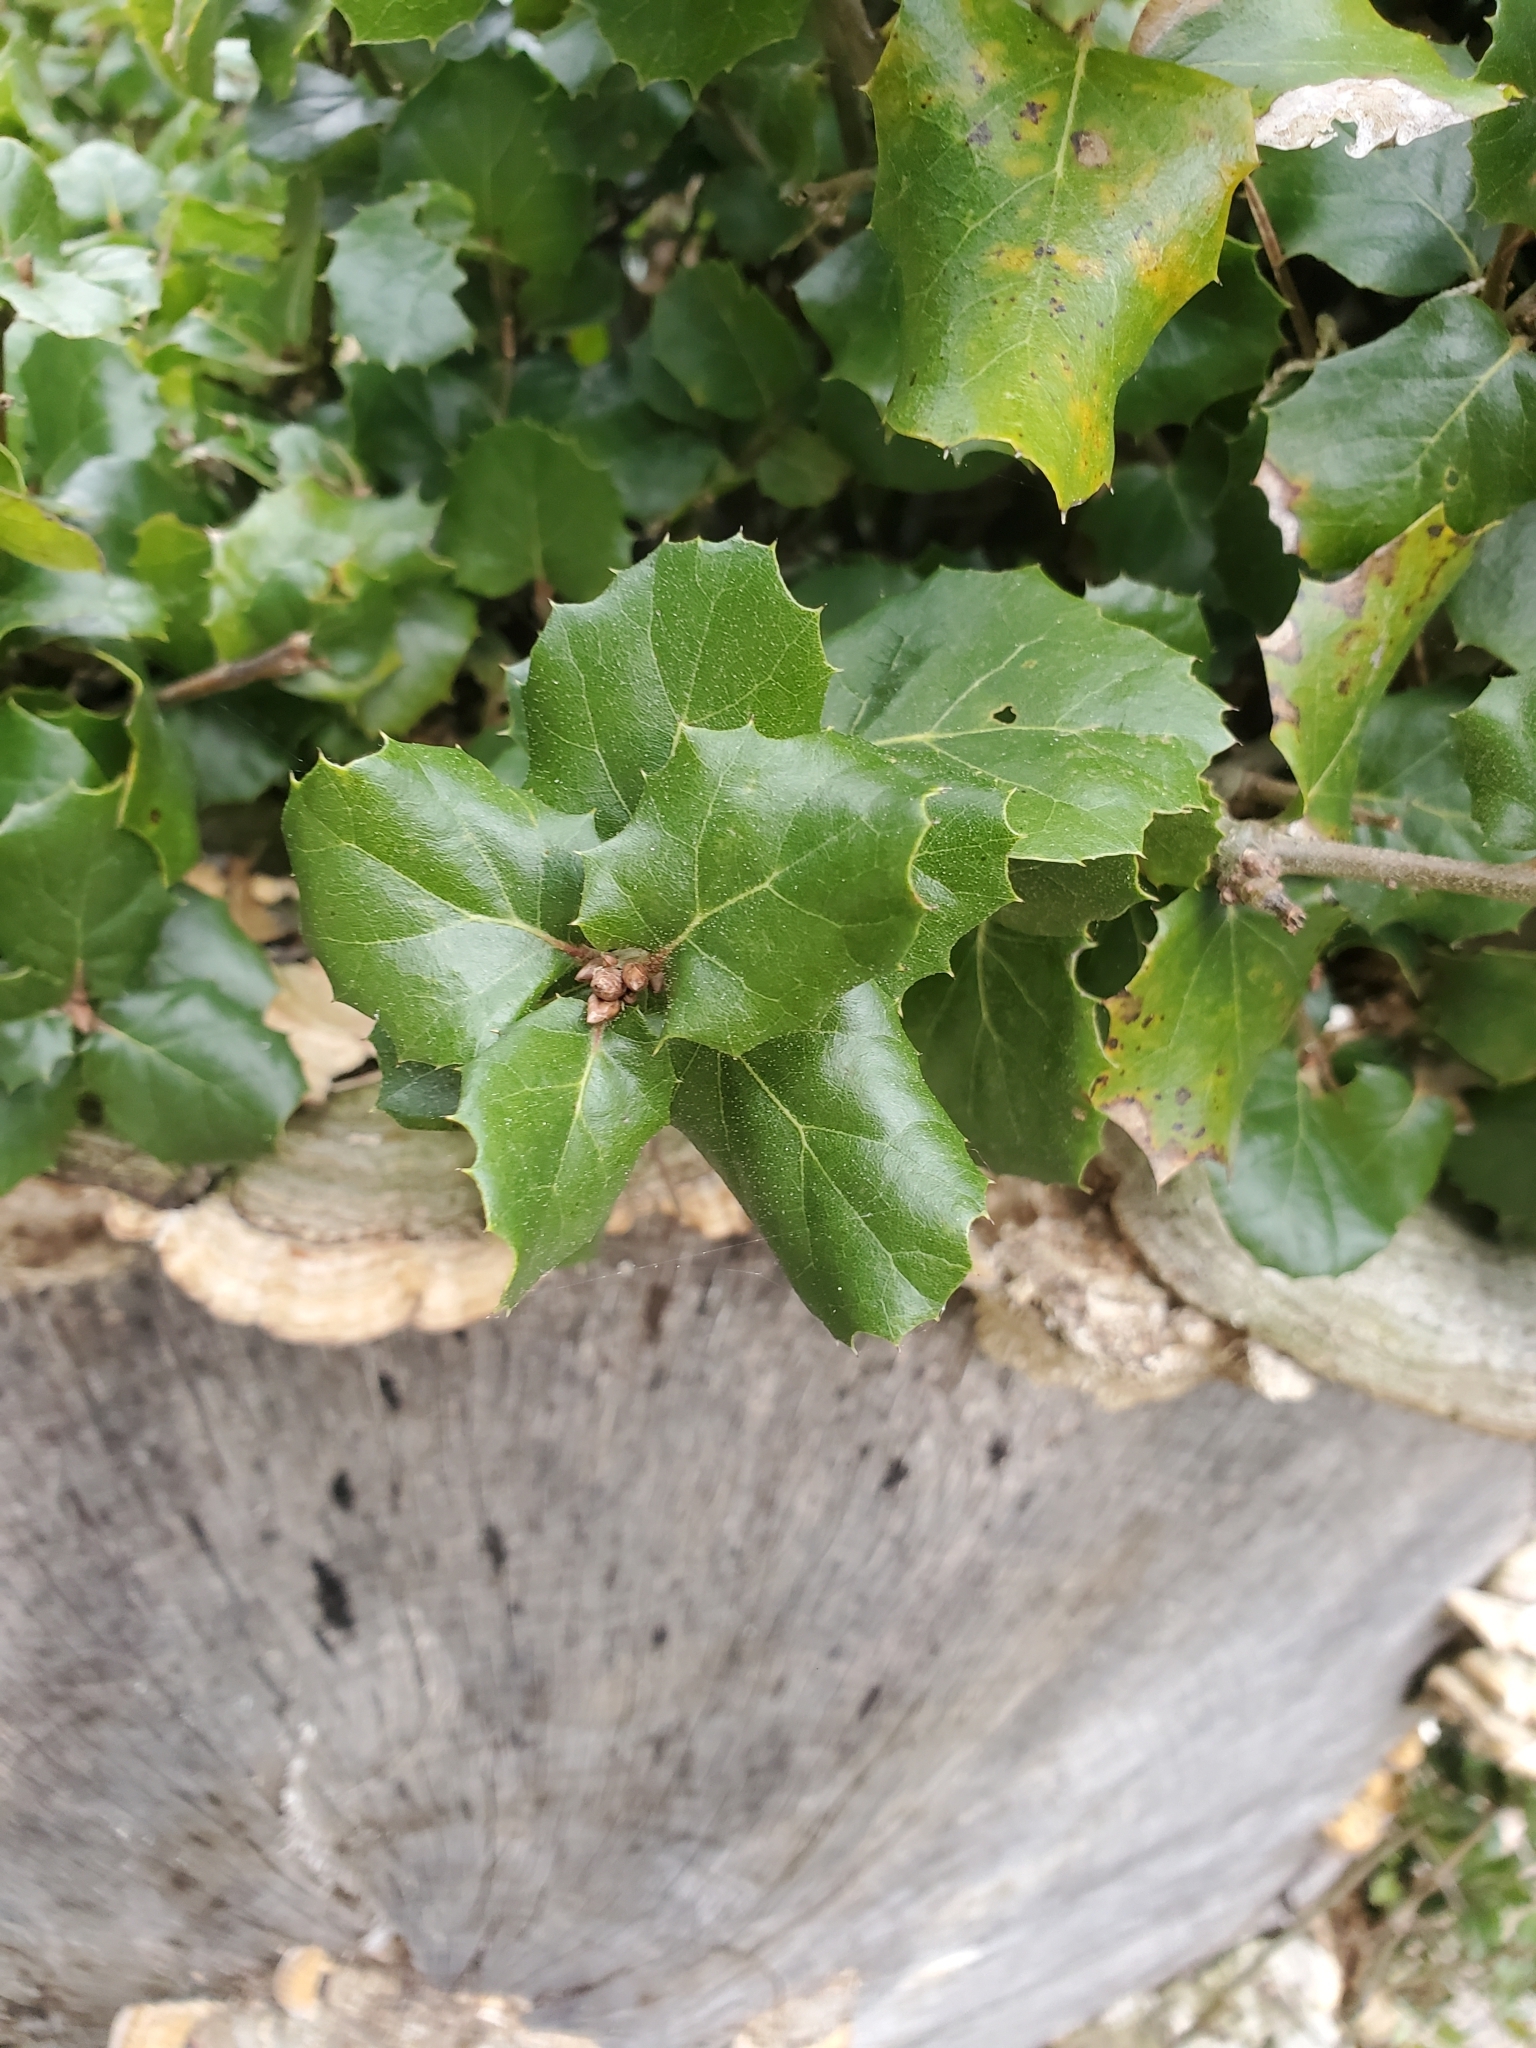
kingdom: Plantae
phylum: Tracheophyta
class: Magnoliopsida
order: Fagales
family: Fagaceae
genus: Quercus
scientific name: Quercus agrifolia
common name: California live oak
